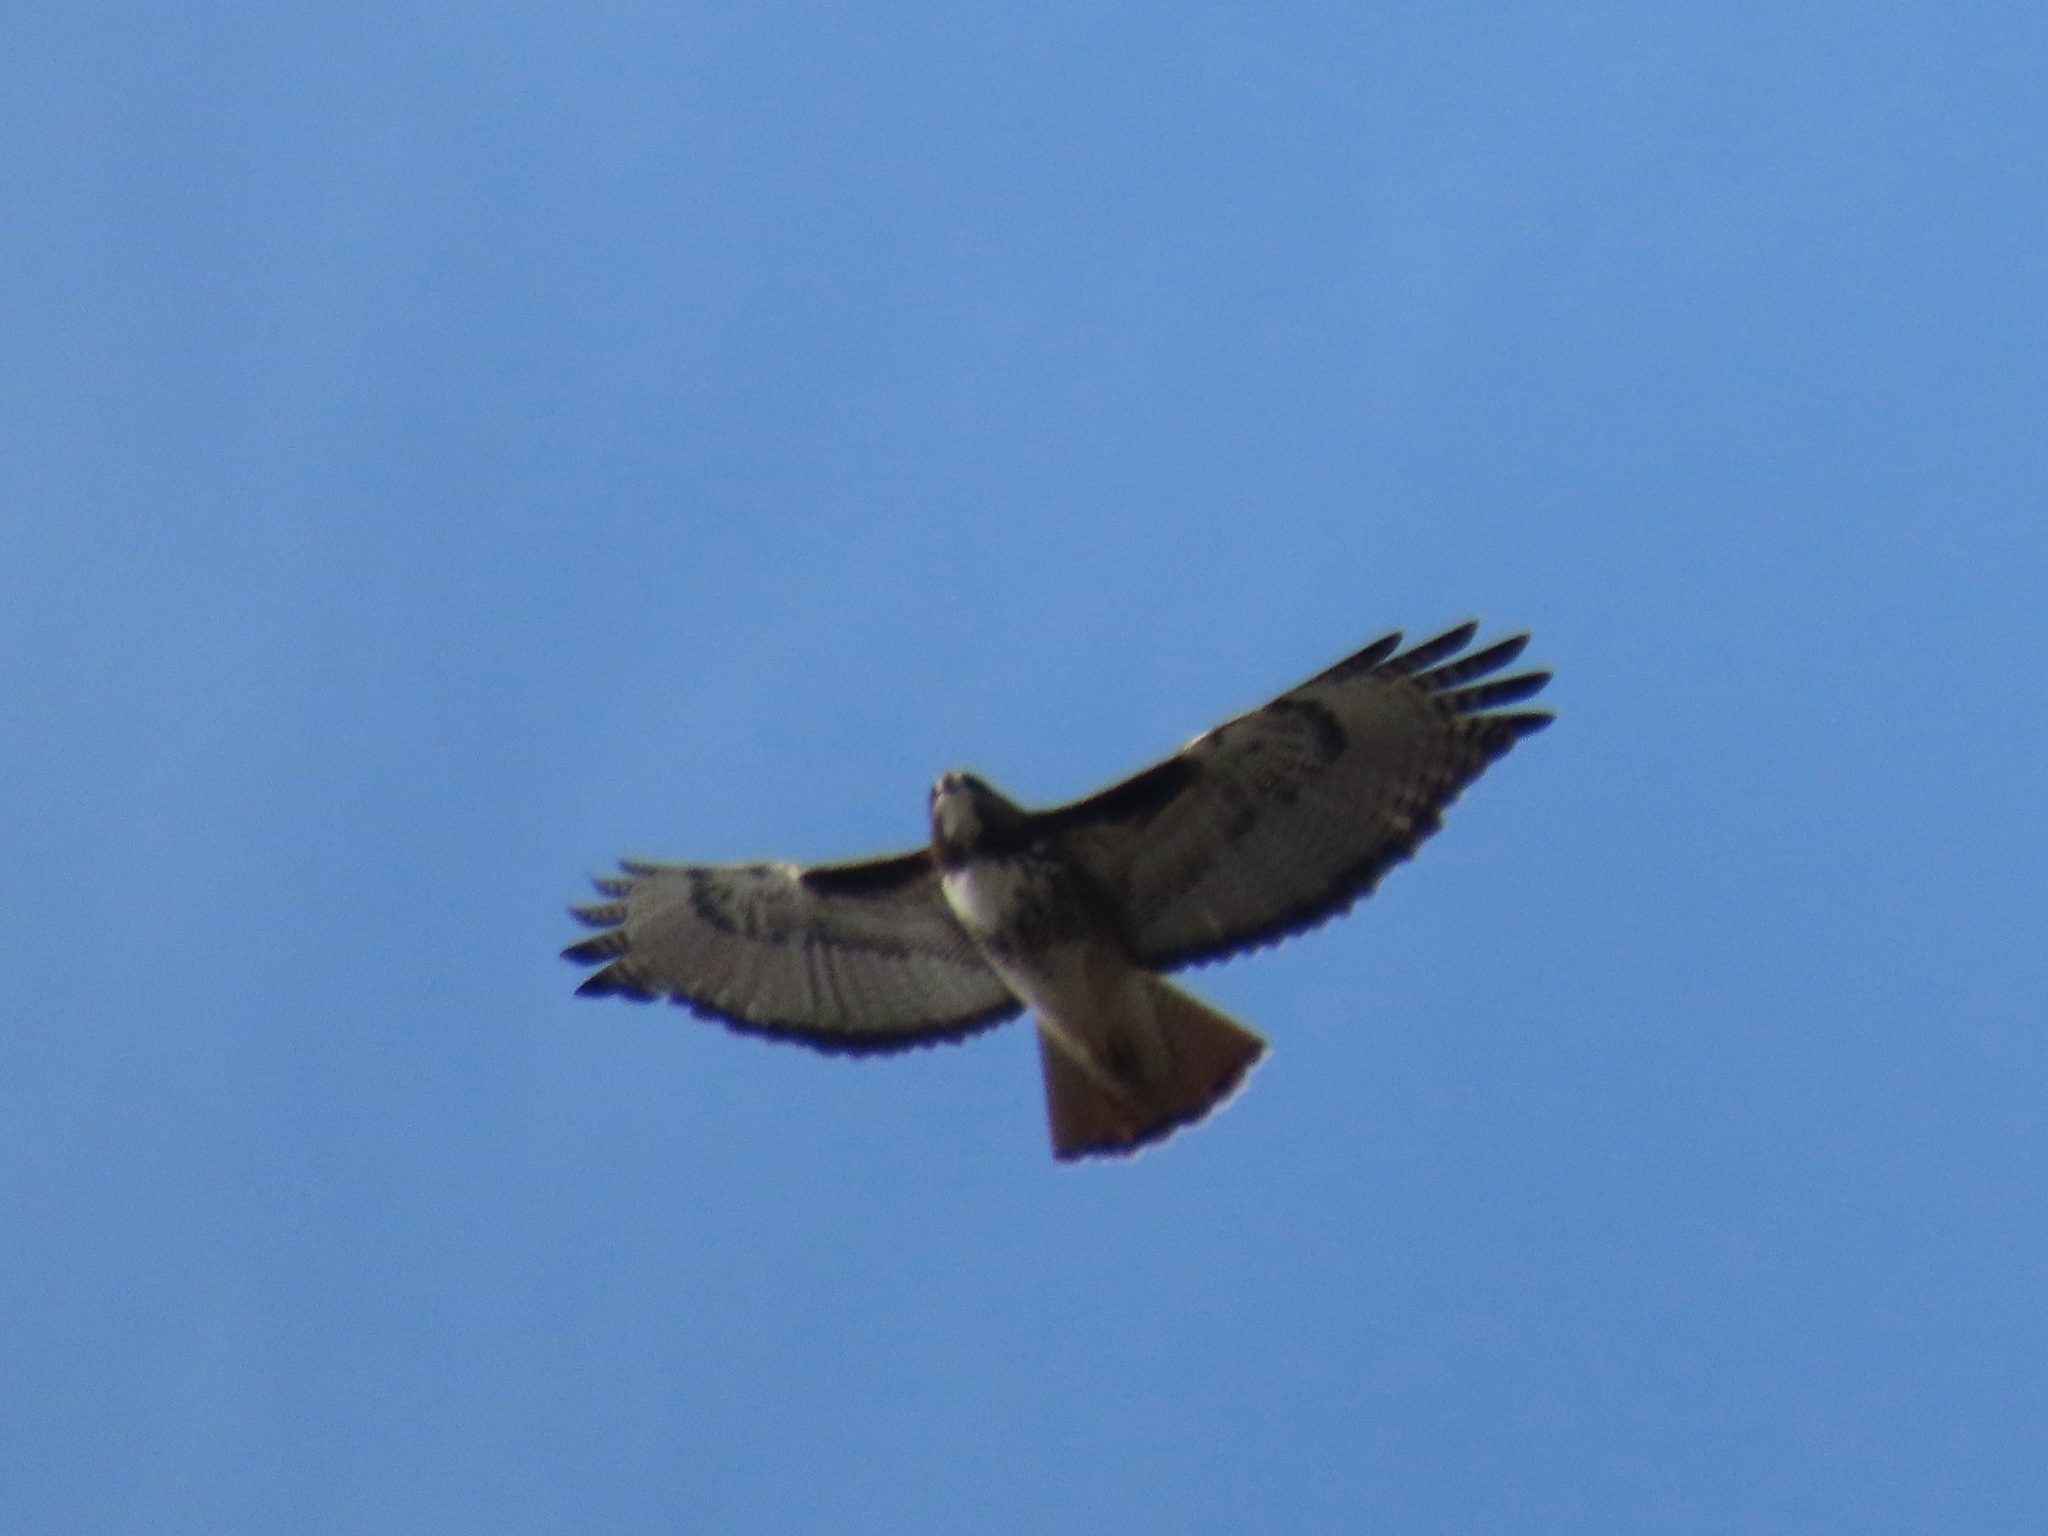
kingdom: Animalia
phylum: Chordata
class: Aves
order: Accipitriformes
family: Accipitridae
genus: Buteo
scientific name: Buteo jamaicensis
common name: Red-tailed hawk
